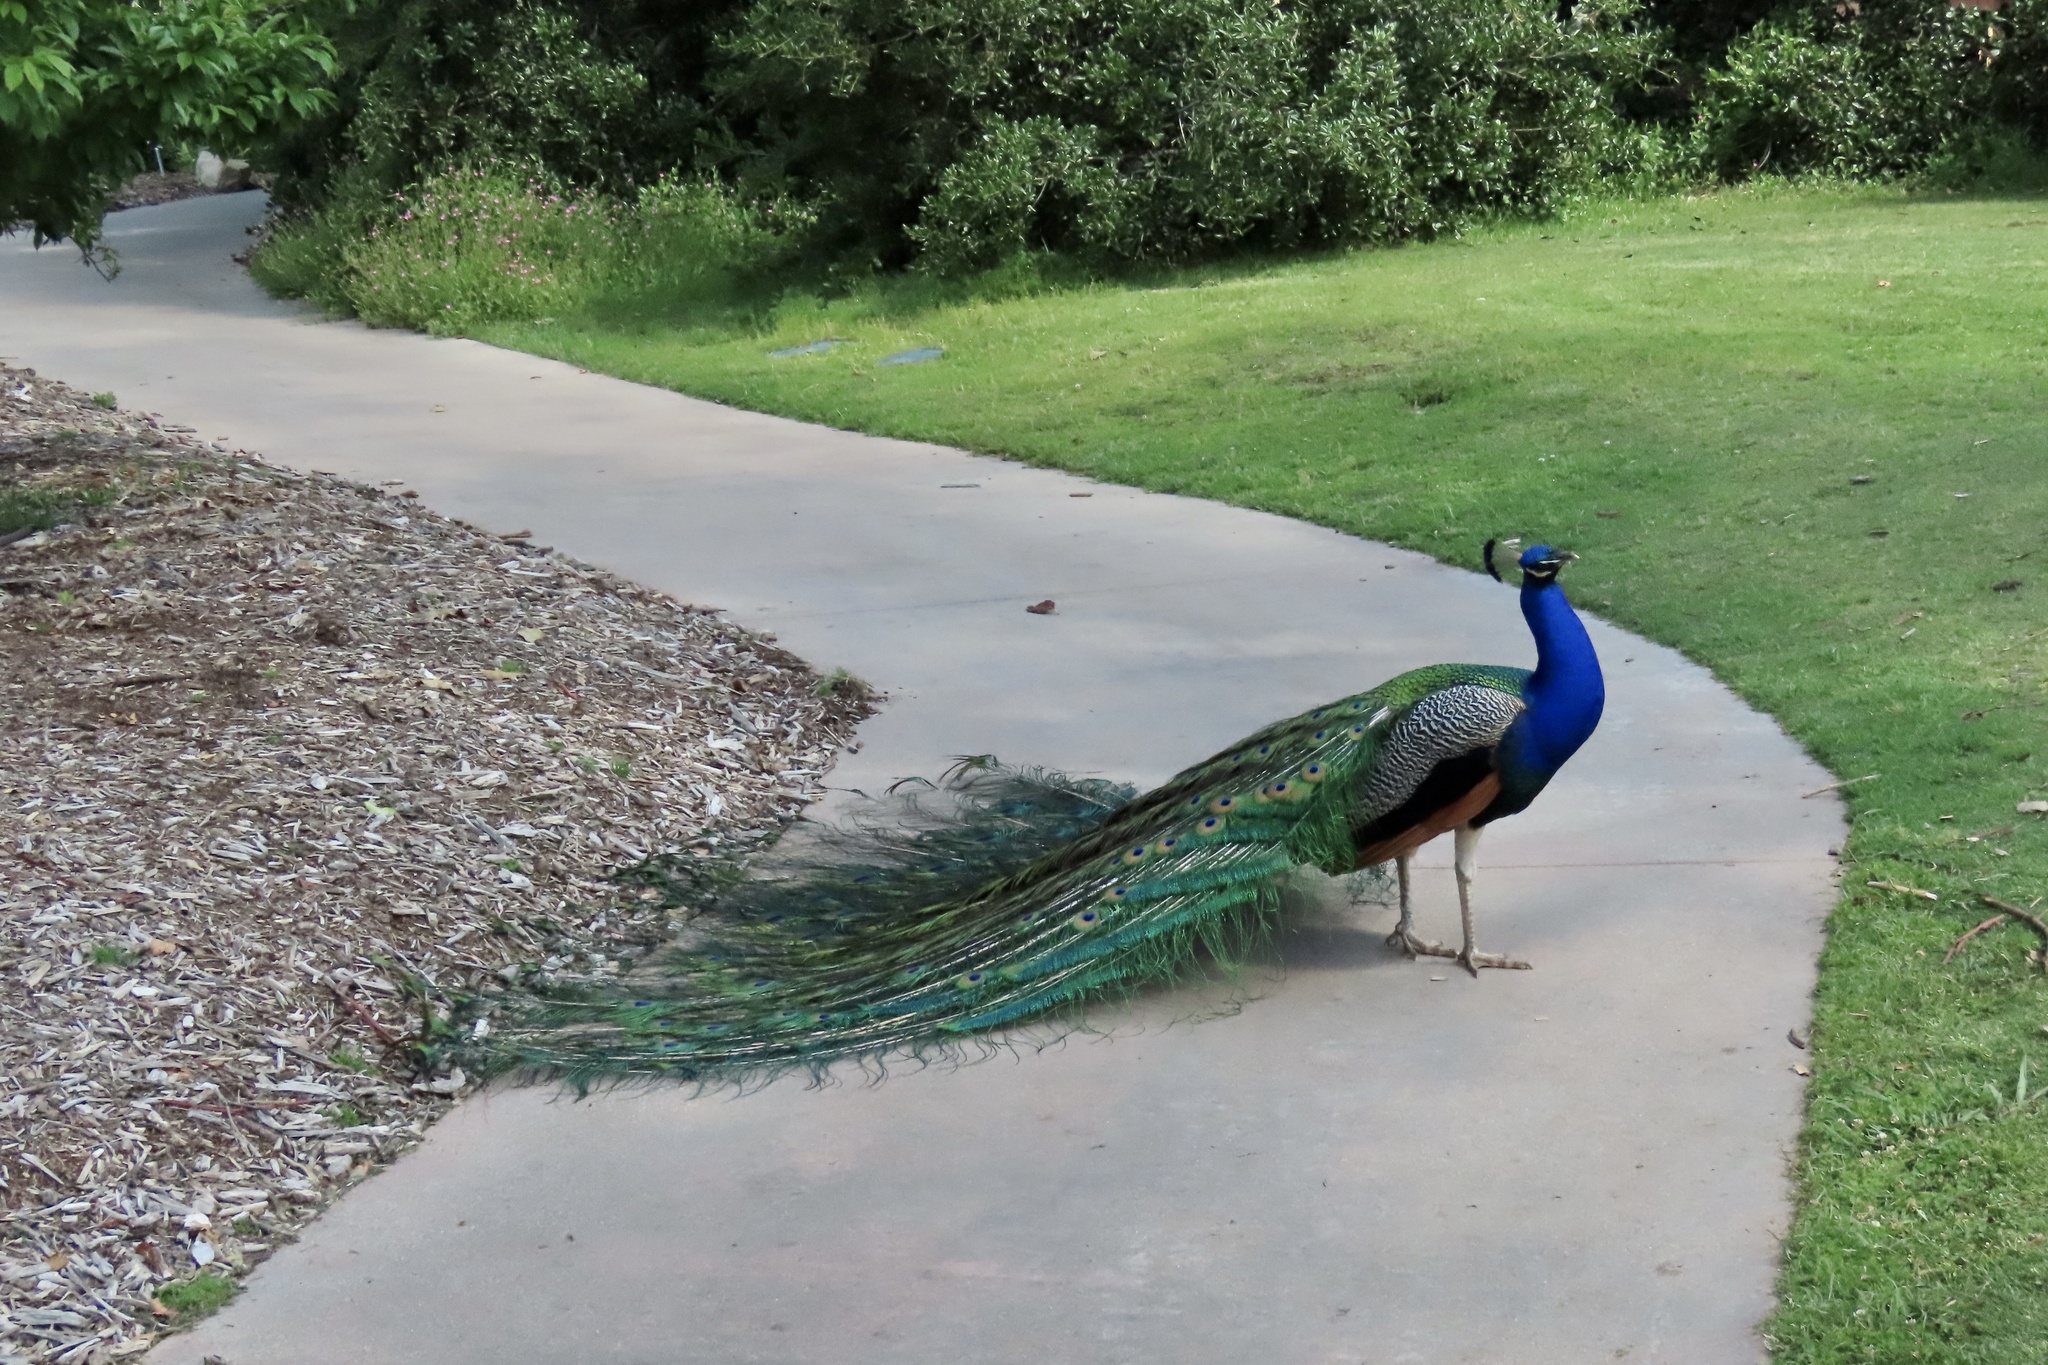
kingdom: Animalia
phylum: Chordata
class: Aves
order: Galliformes
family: Phasianidae
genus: Pavo
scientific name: Pavo cristatus
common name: Indian peafowl
